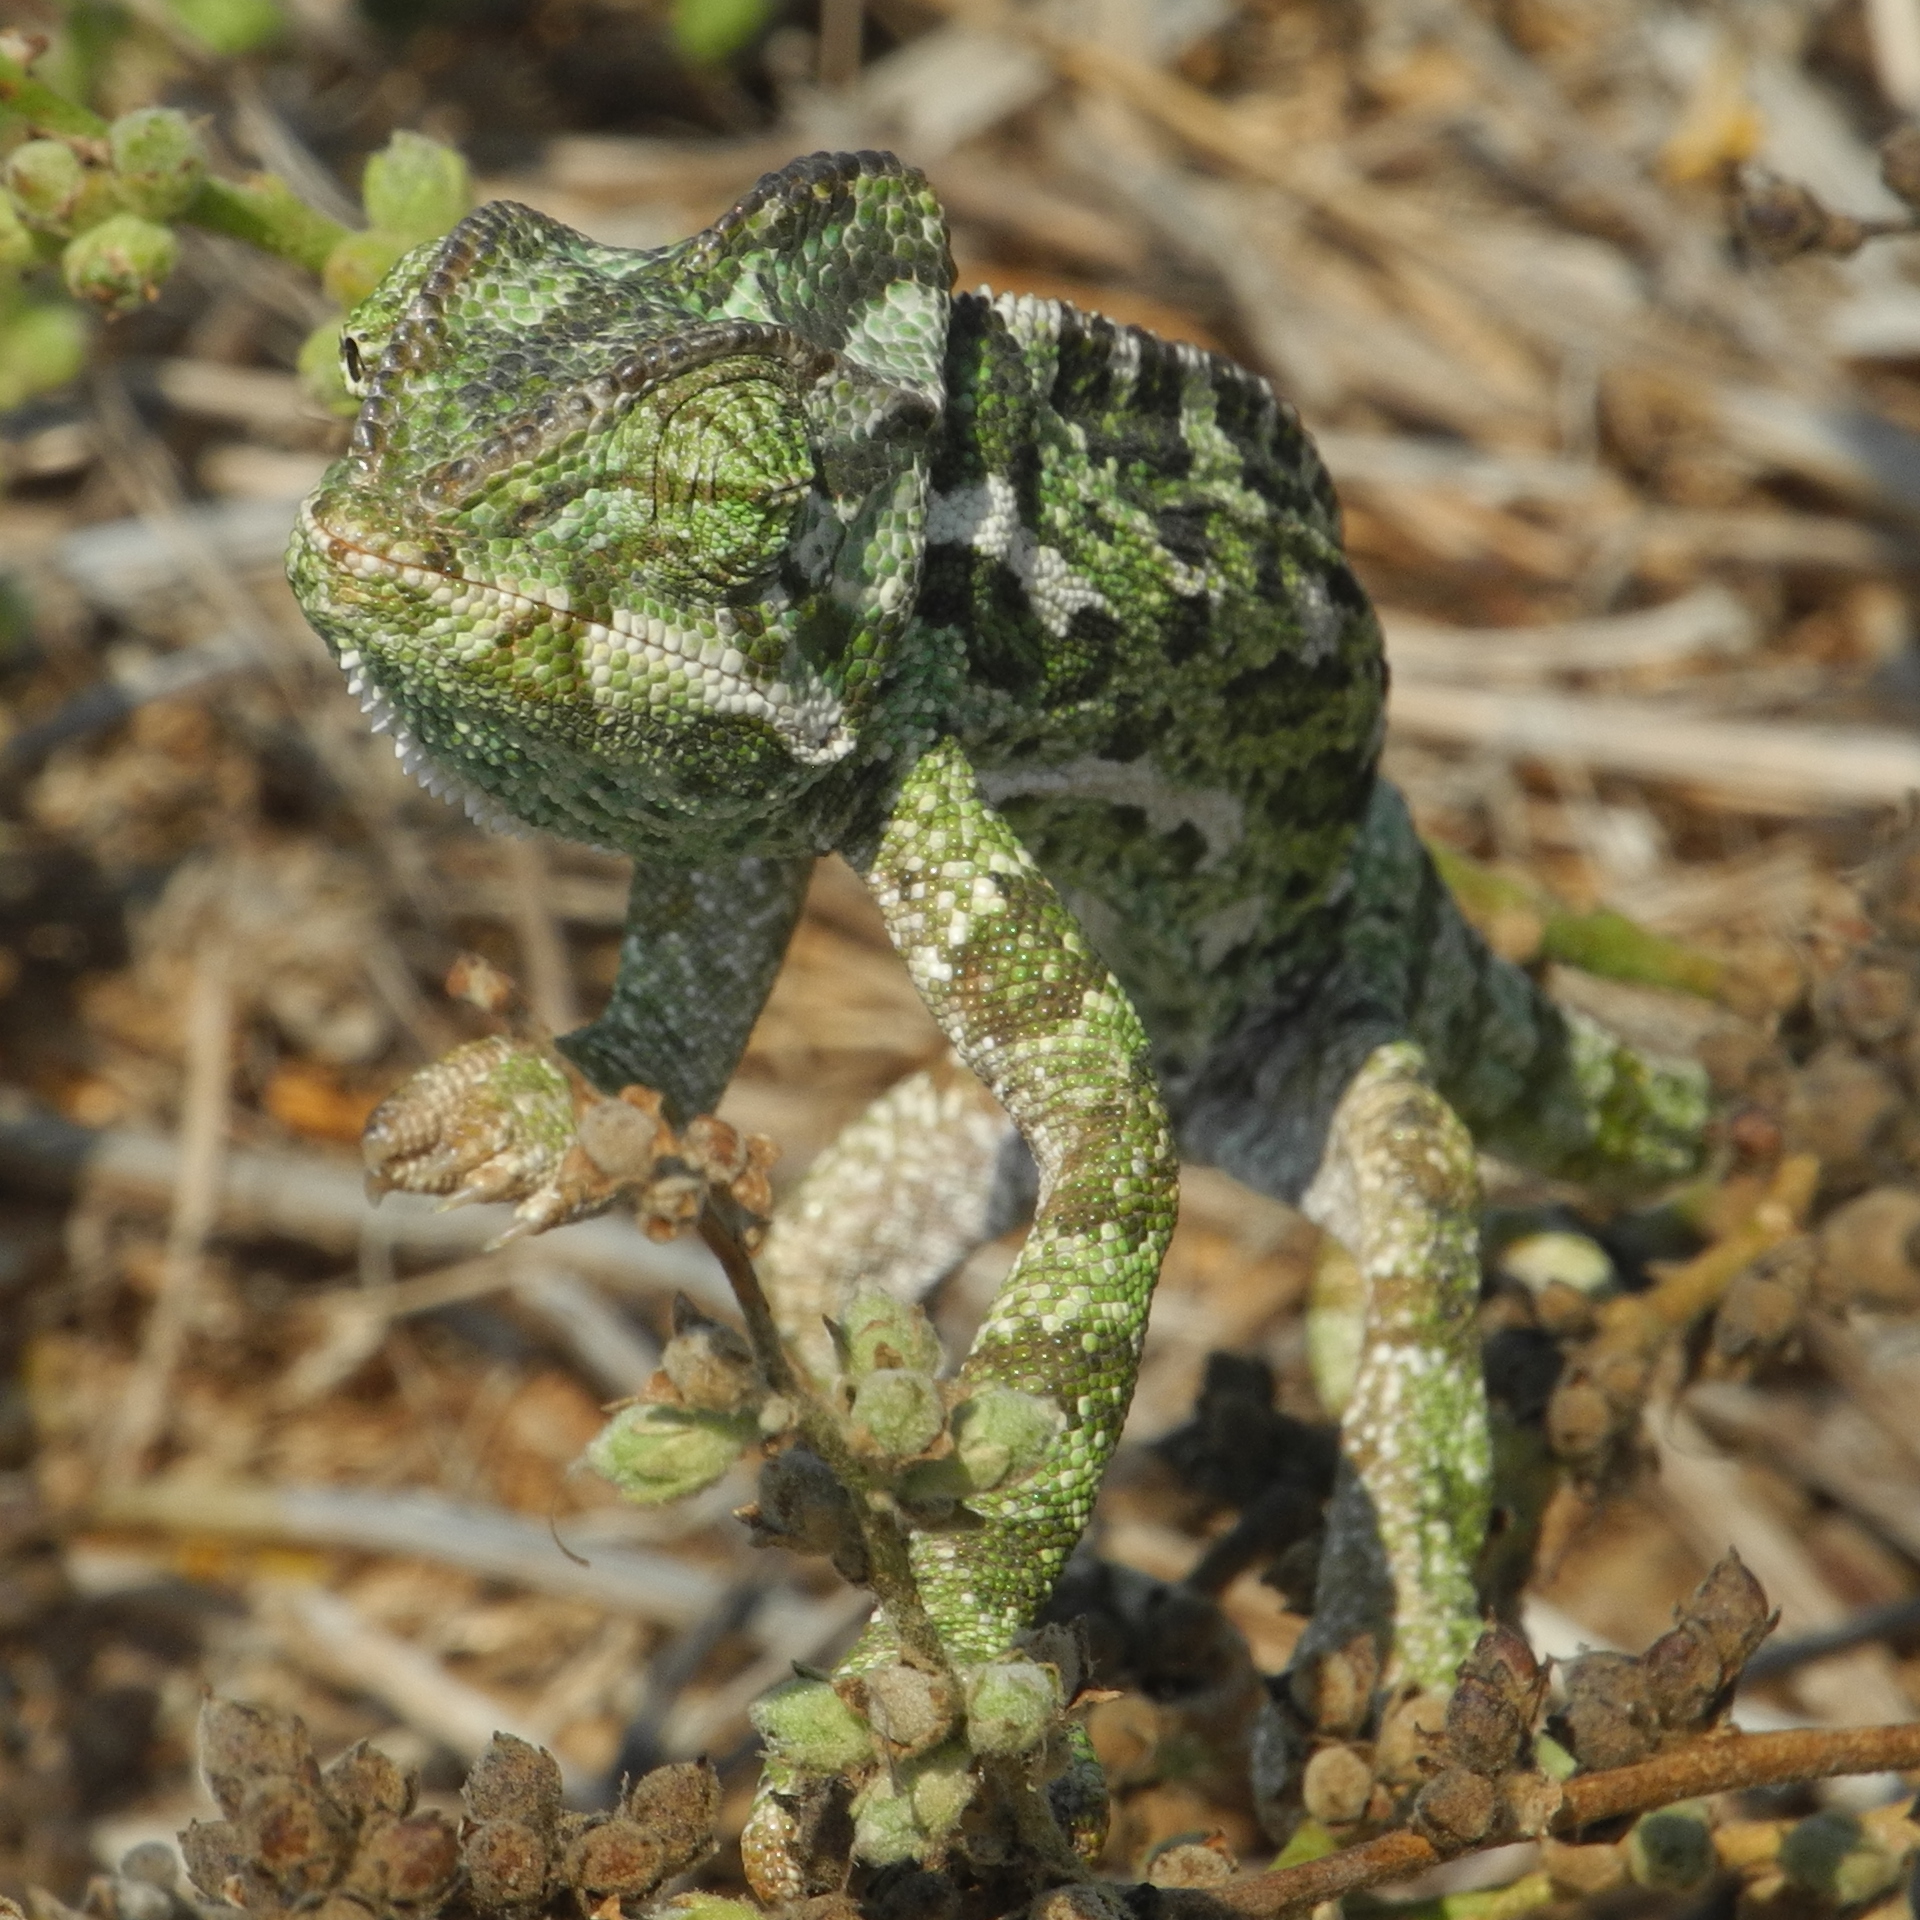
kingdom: Animalia
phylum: Chordata
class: Squamata
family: Chamaeleonidae
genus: Chamaeleo
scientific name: Chamaeleo chamaeleon
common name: Mediterranean chameleon
